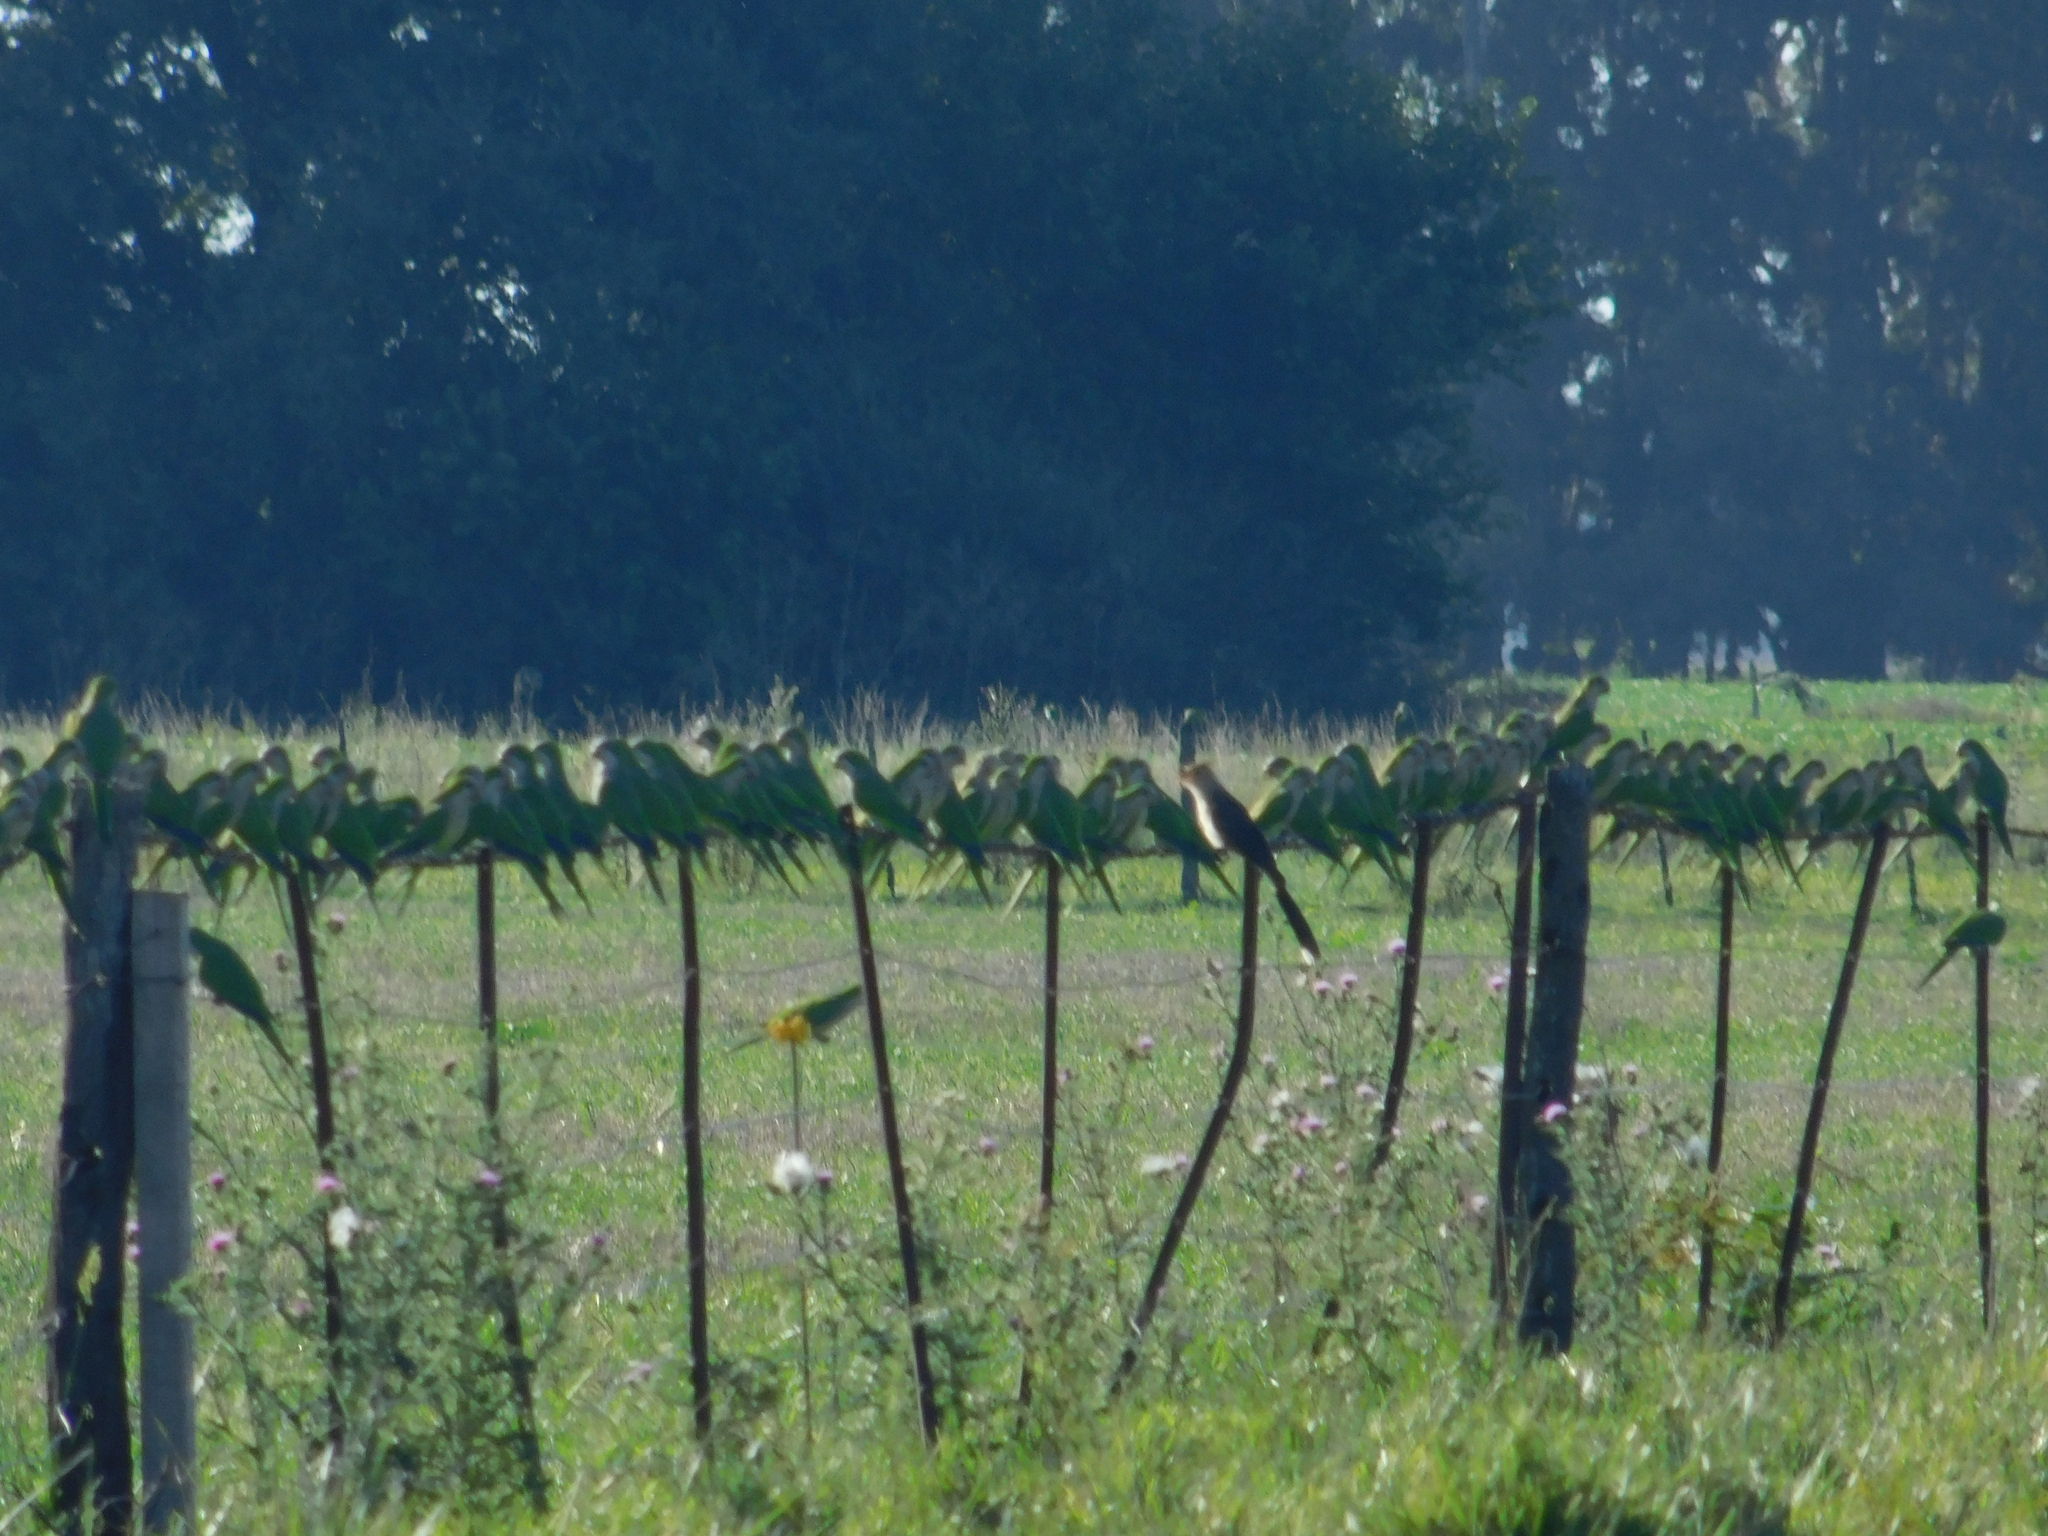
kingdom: Animalia
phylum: Chordata
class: Aves
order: Psittaciformes
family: Psittacidae
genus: Myiopsitta
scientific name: Myiopsitta monachus
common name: Monk parakeet
